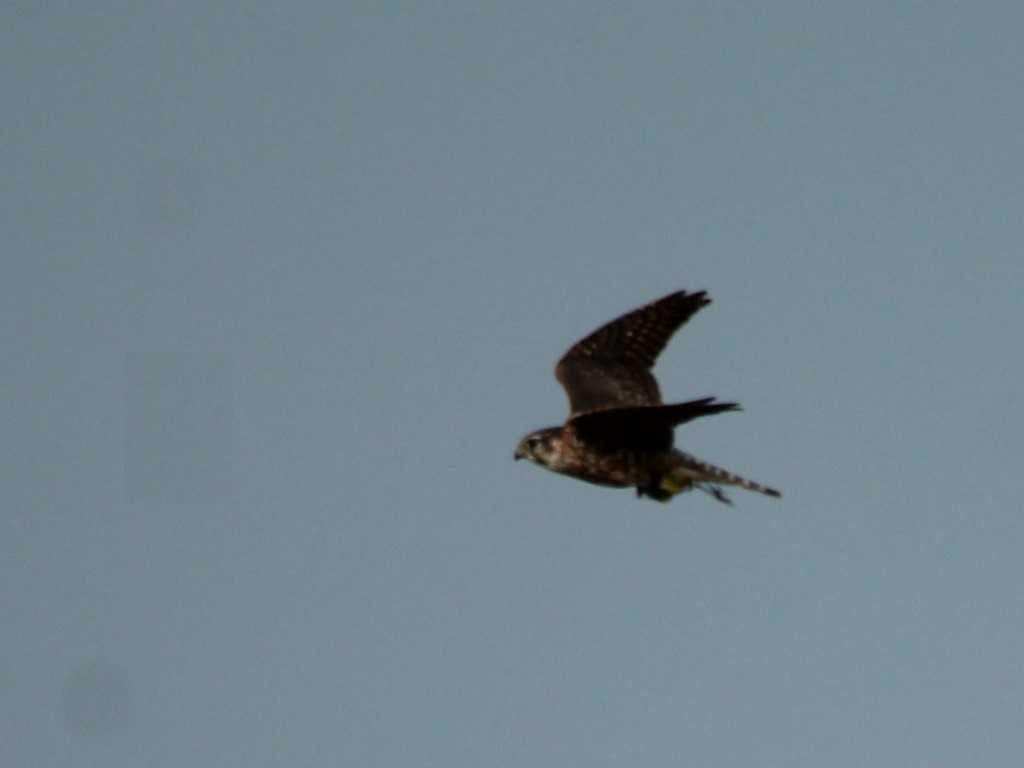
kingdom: Animalia
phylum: Chordata
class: Aves
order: Falconiformes
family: Falconidae
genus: Falco
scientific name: Falco columbarius
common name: Merlin
